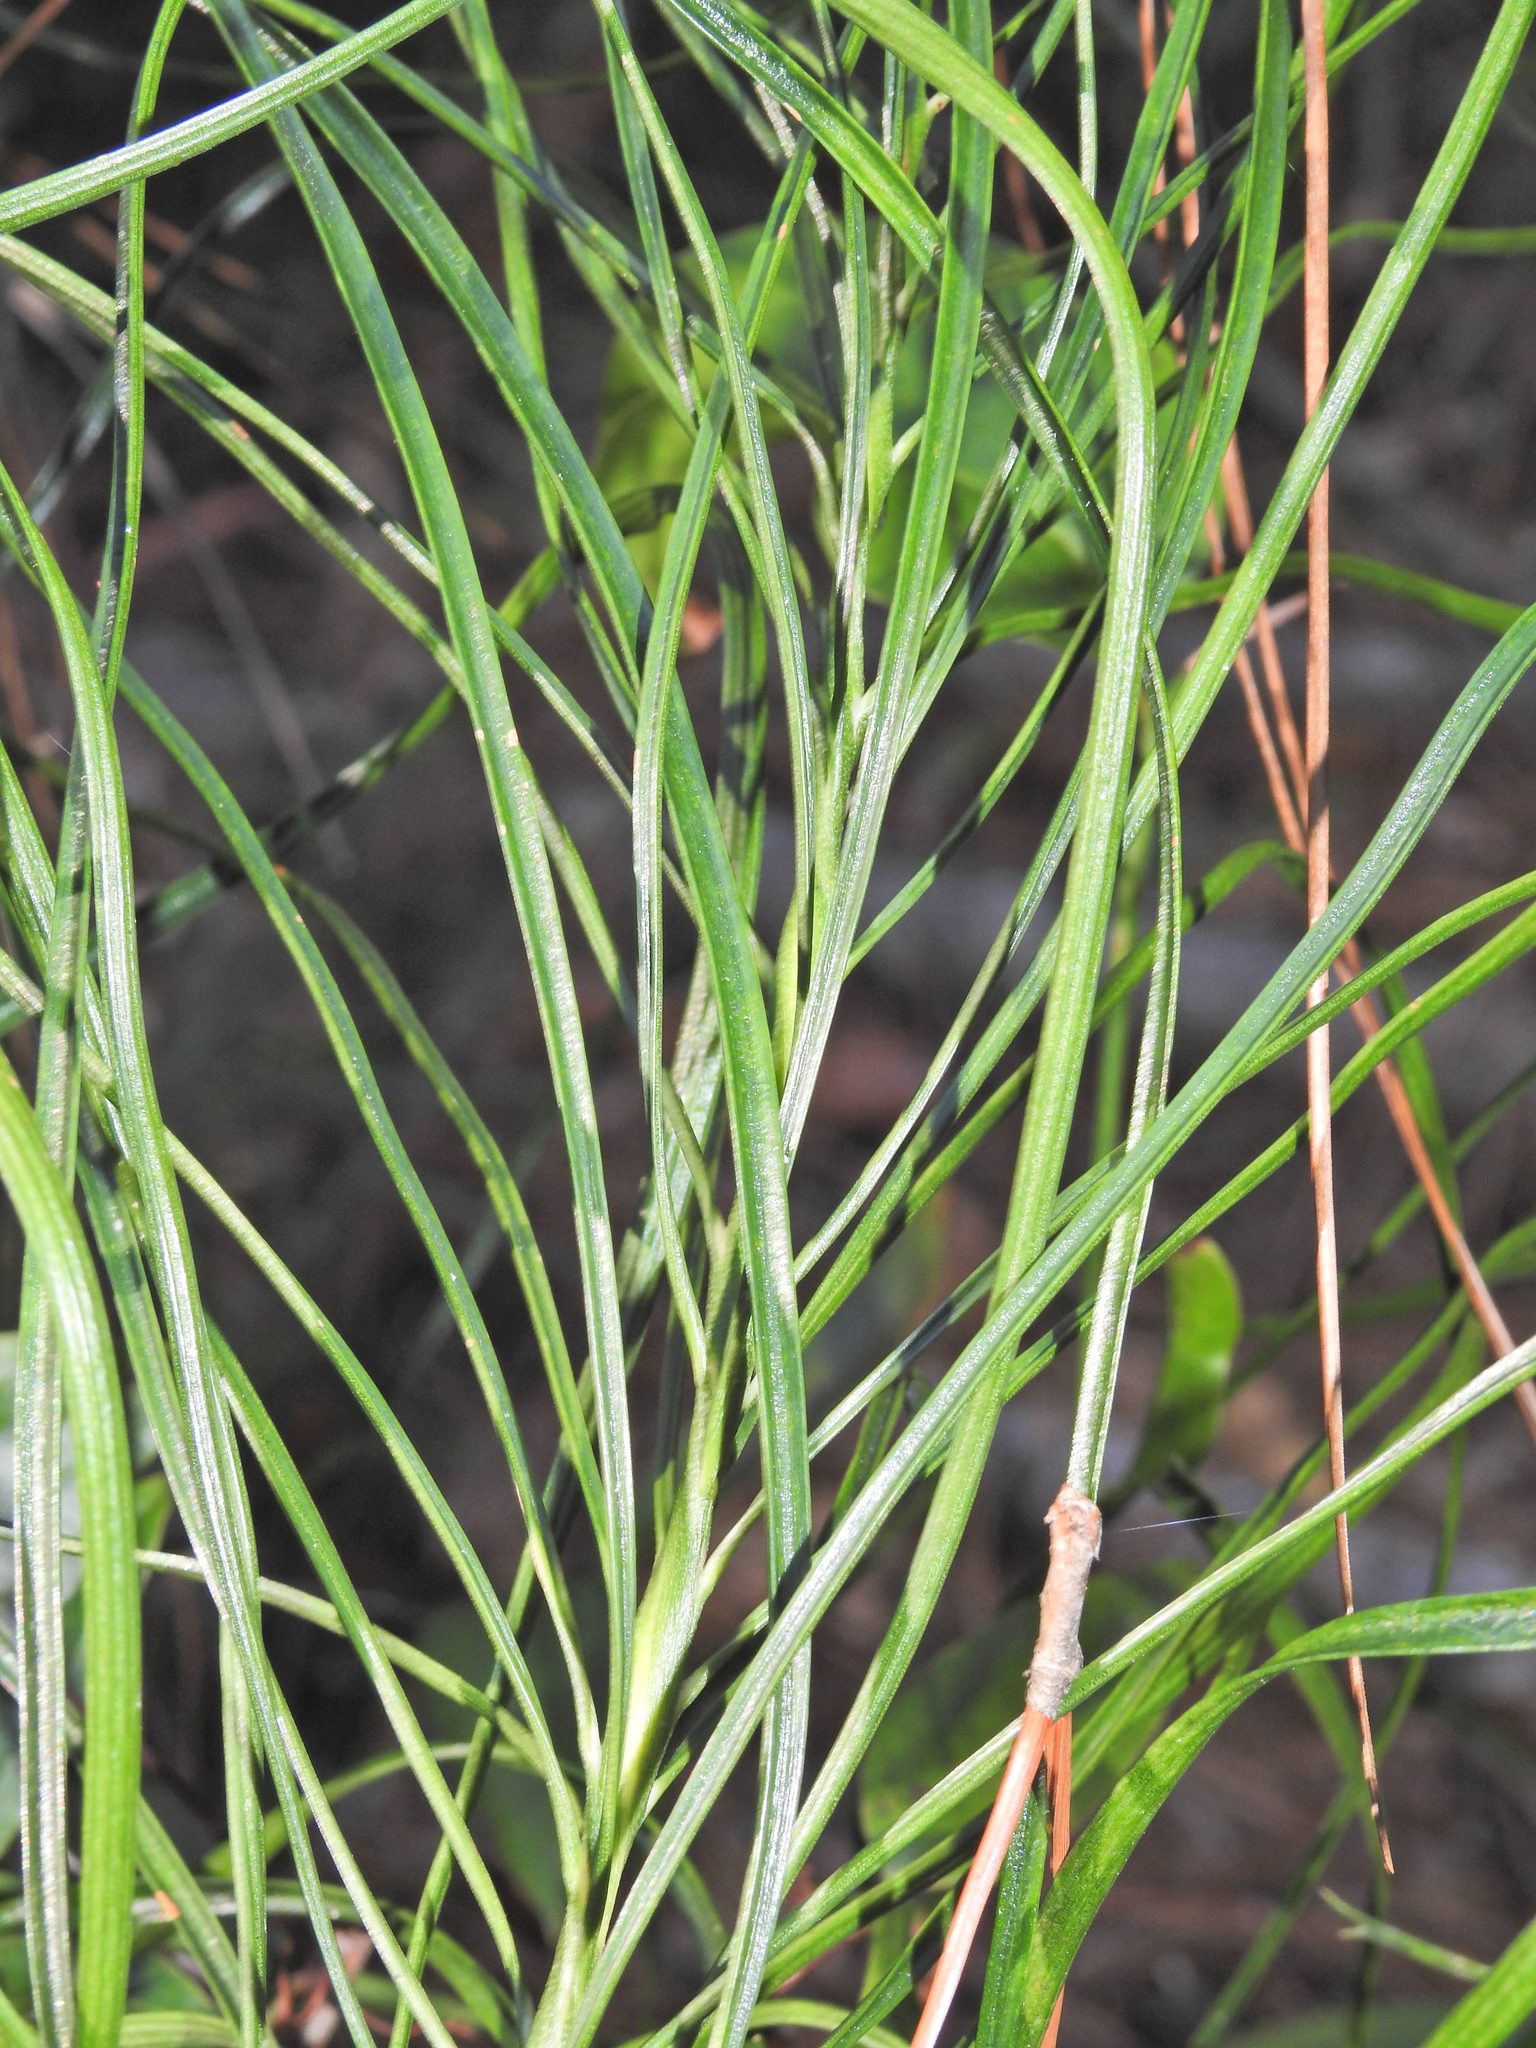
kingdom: Plantae
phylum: Tracheophyta
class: Cycadopsida
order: Cycadales
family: Zamiaceae
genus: Macrozamia
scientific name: Macrozamia pauli-guilielmi
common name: Pineapple zamia
